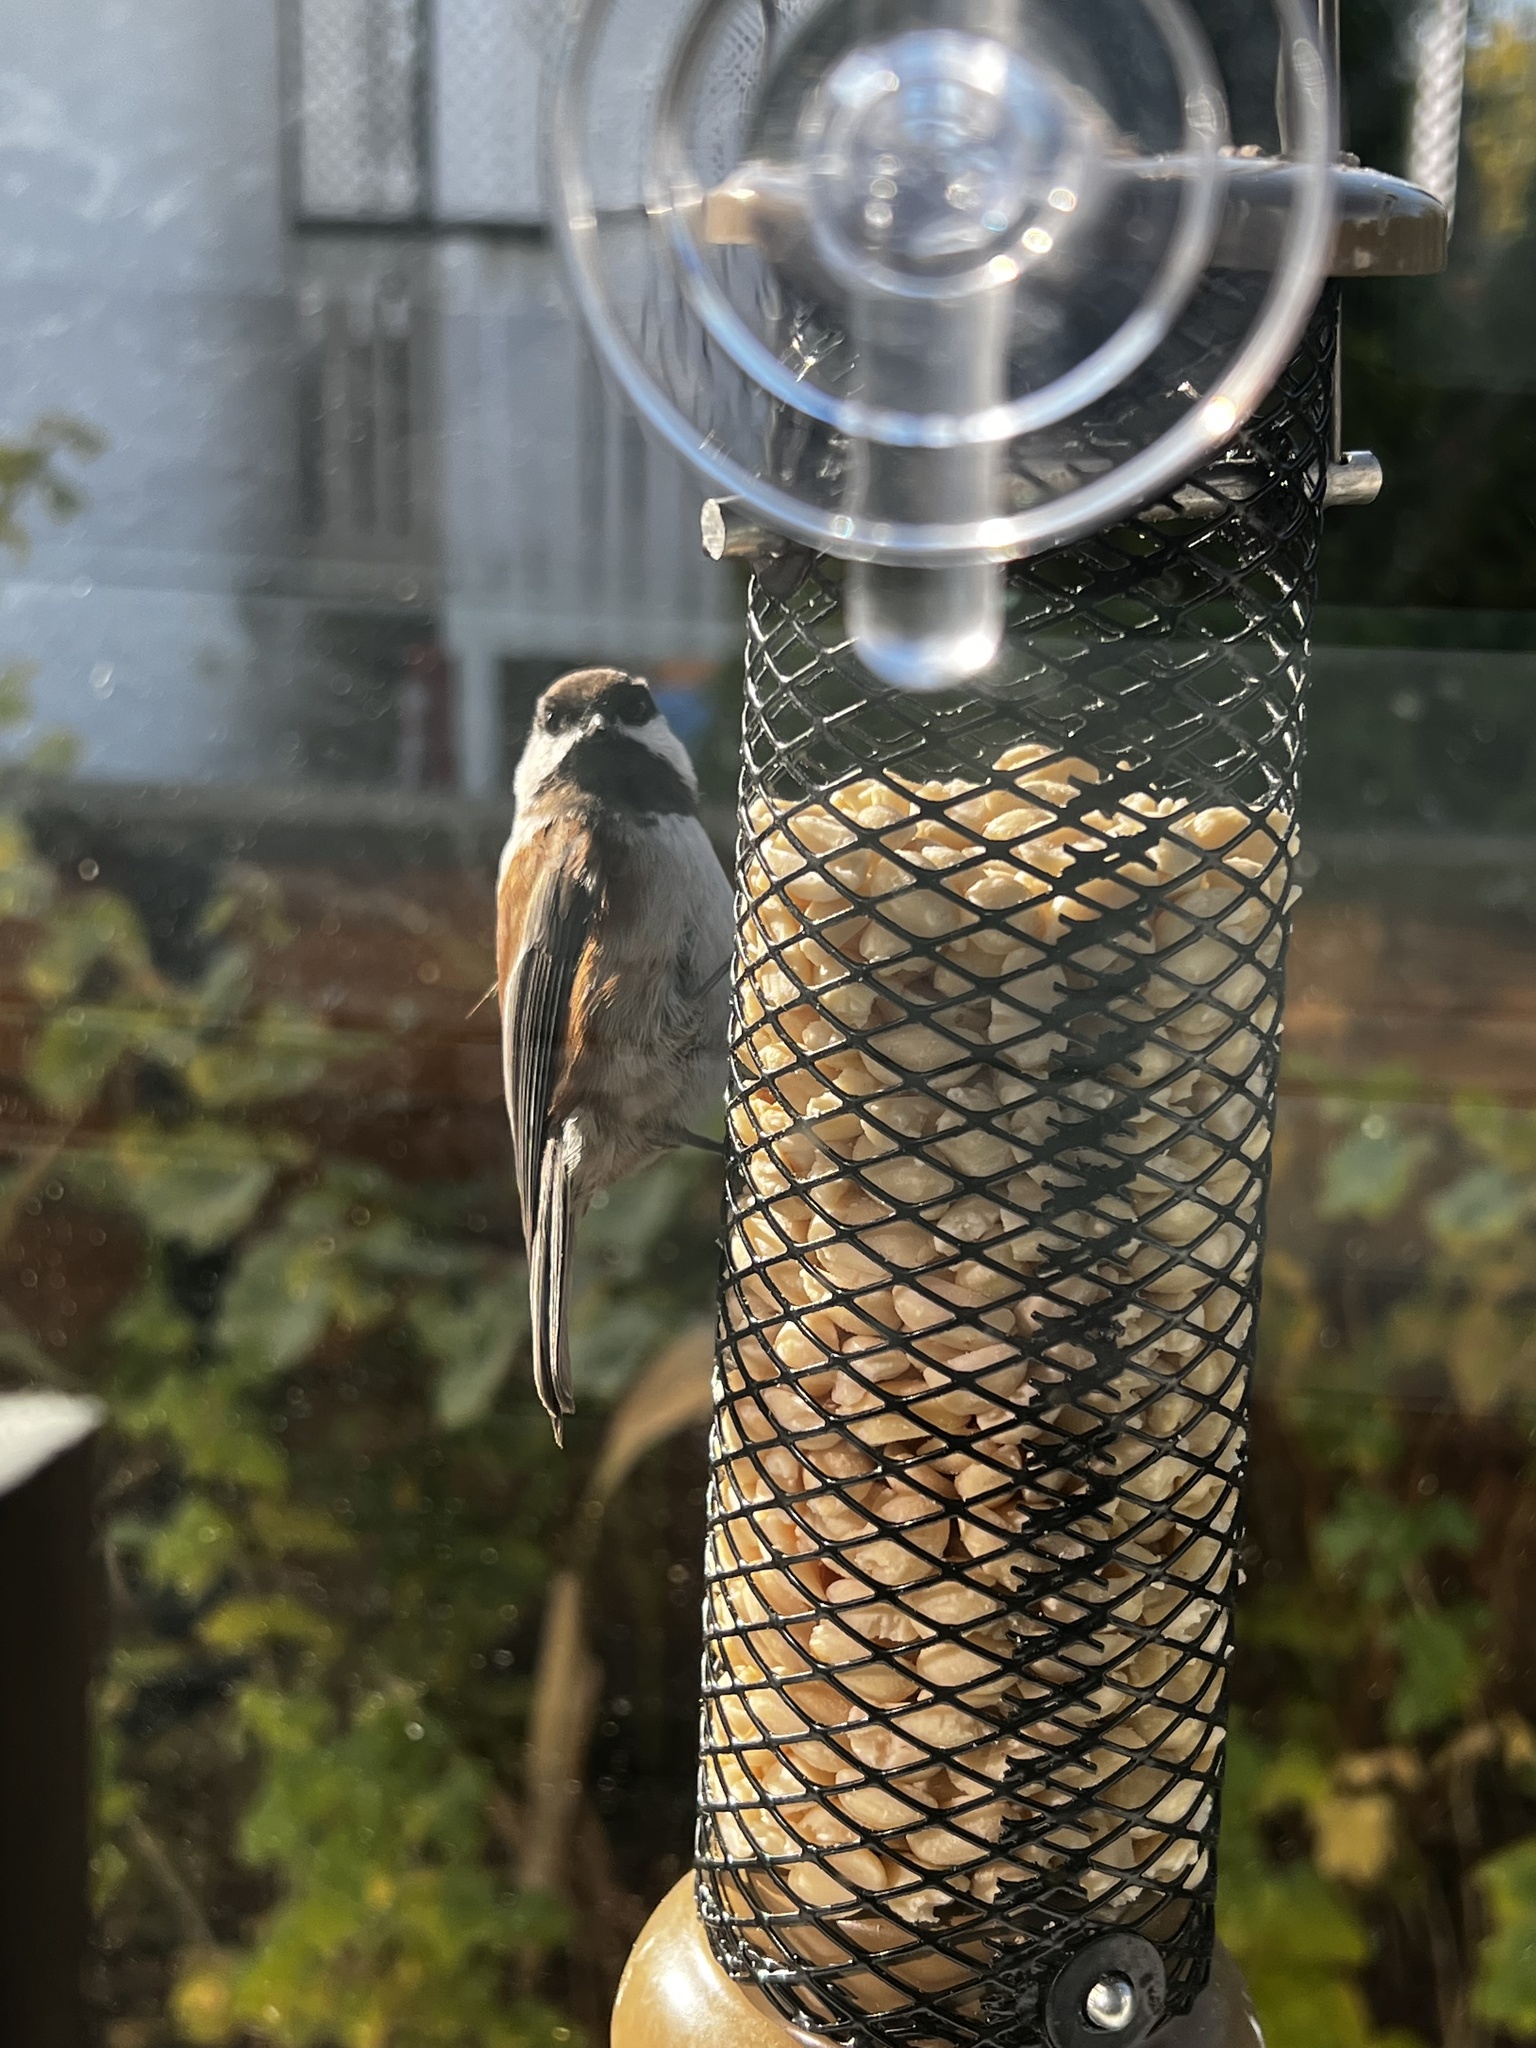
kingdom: Animalia
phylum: Chordata
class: Aves
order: Passeriformes
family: Paridae
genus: Poecile
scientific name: Poecile rufescens
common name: Chestnut-backed chickadee
